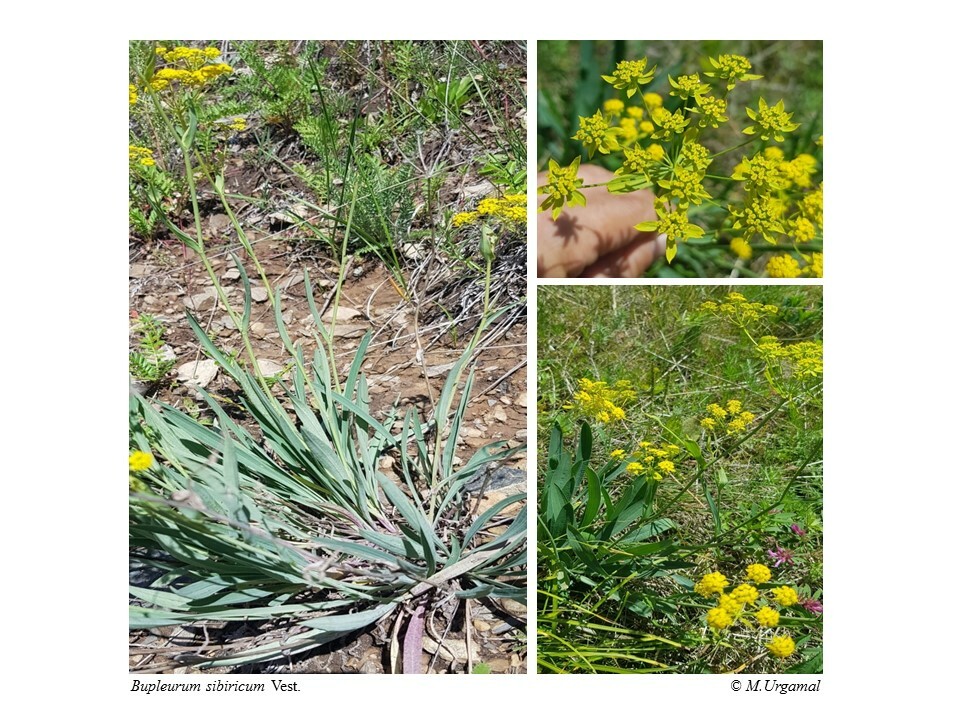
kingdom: Plantae
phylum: Tracheophyta
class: Magnoliopsida
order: Apiales
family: Apiaceae
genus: Bupleurum
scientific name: Bupleurum sibiricum
